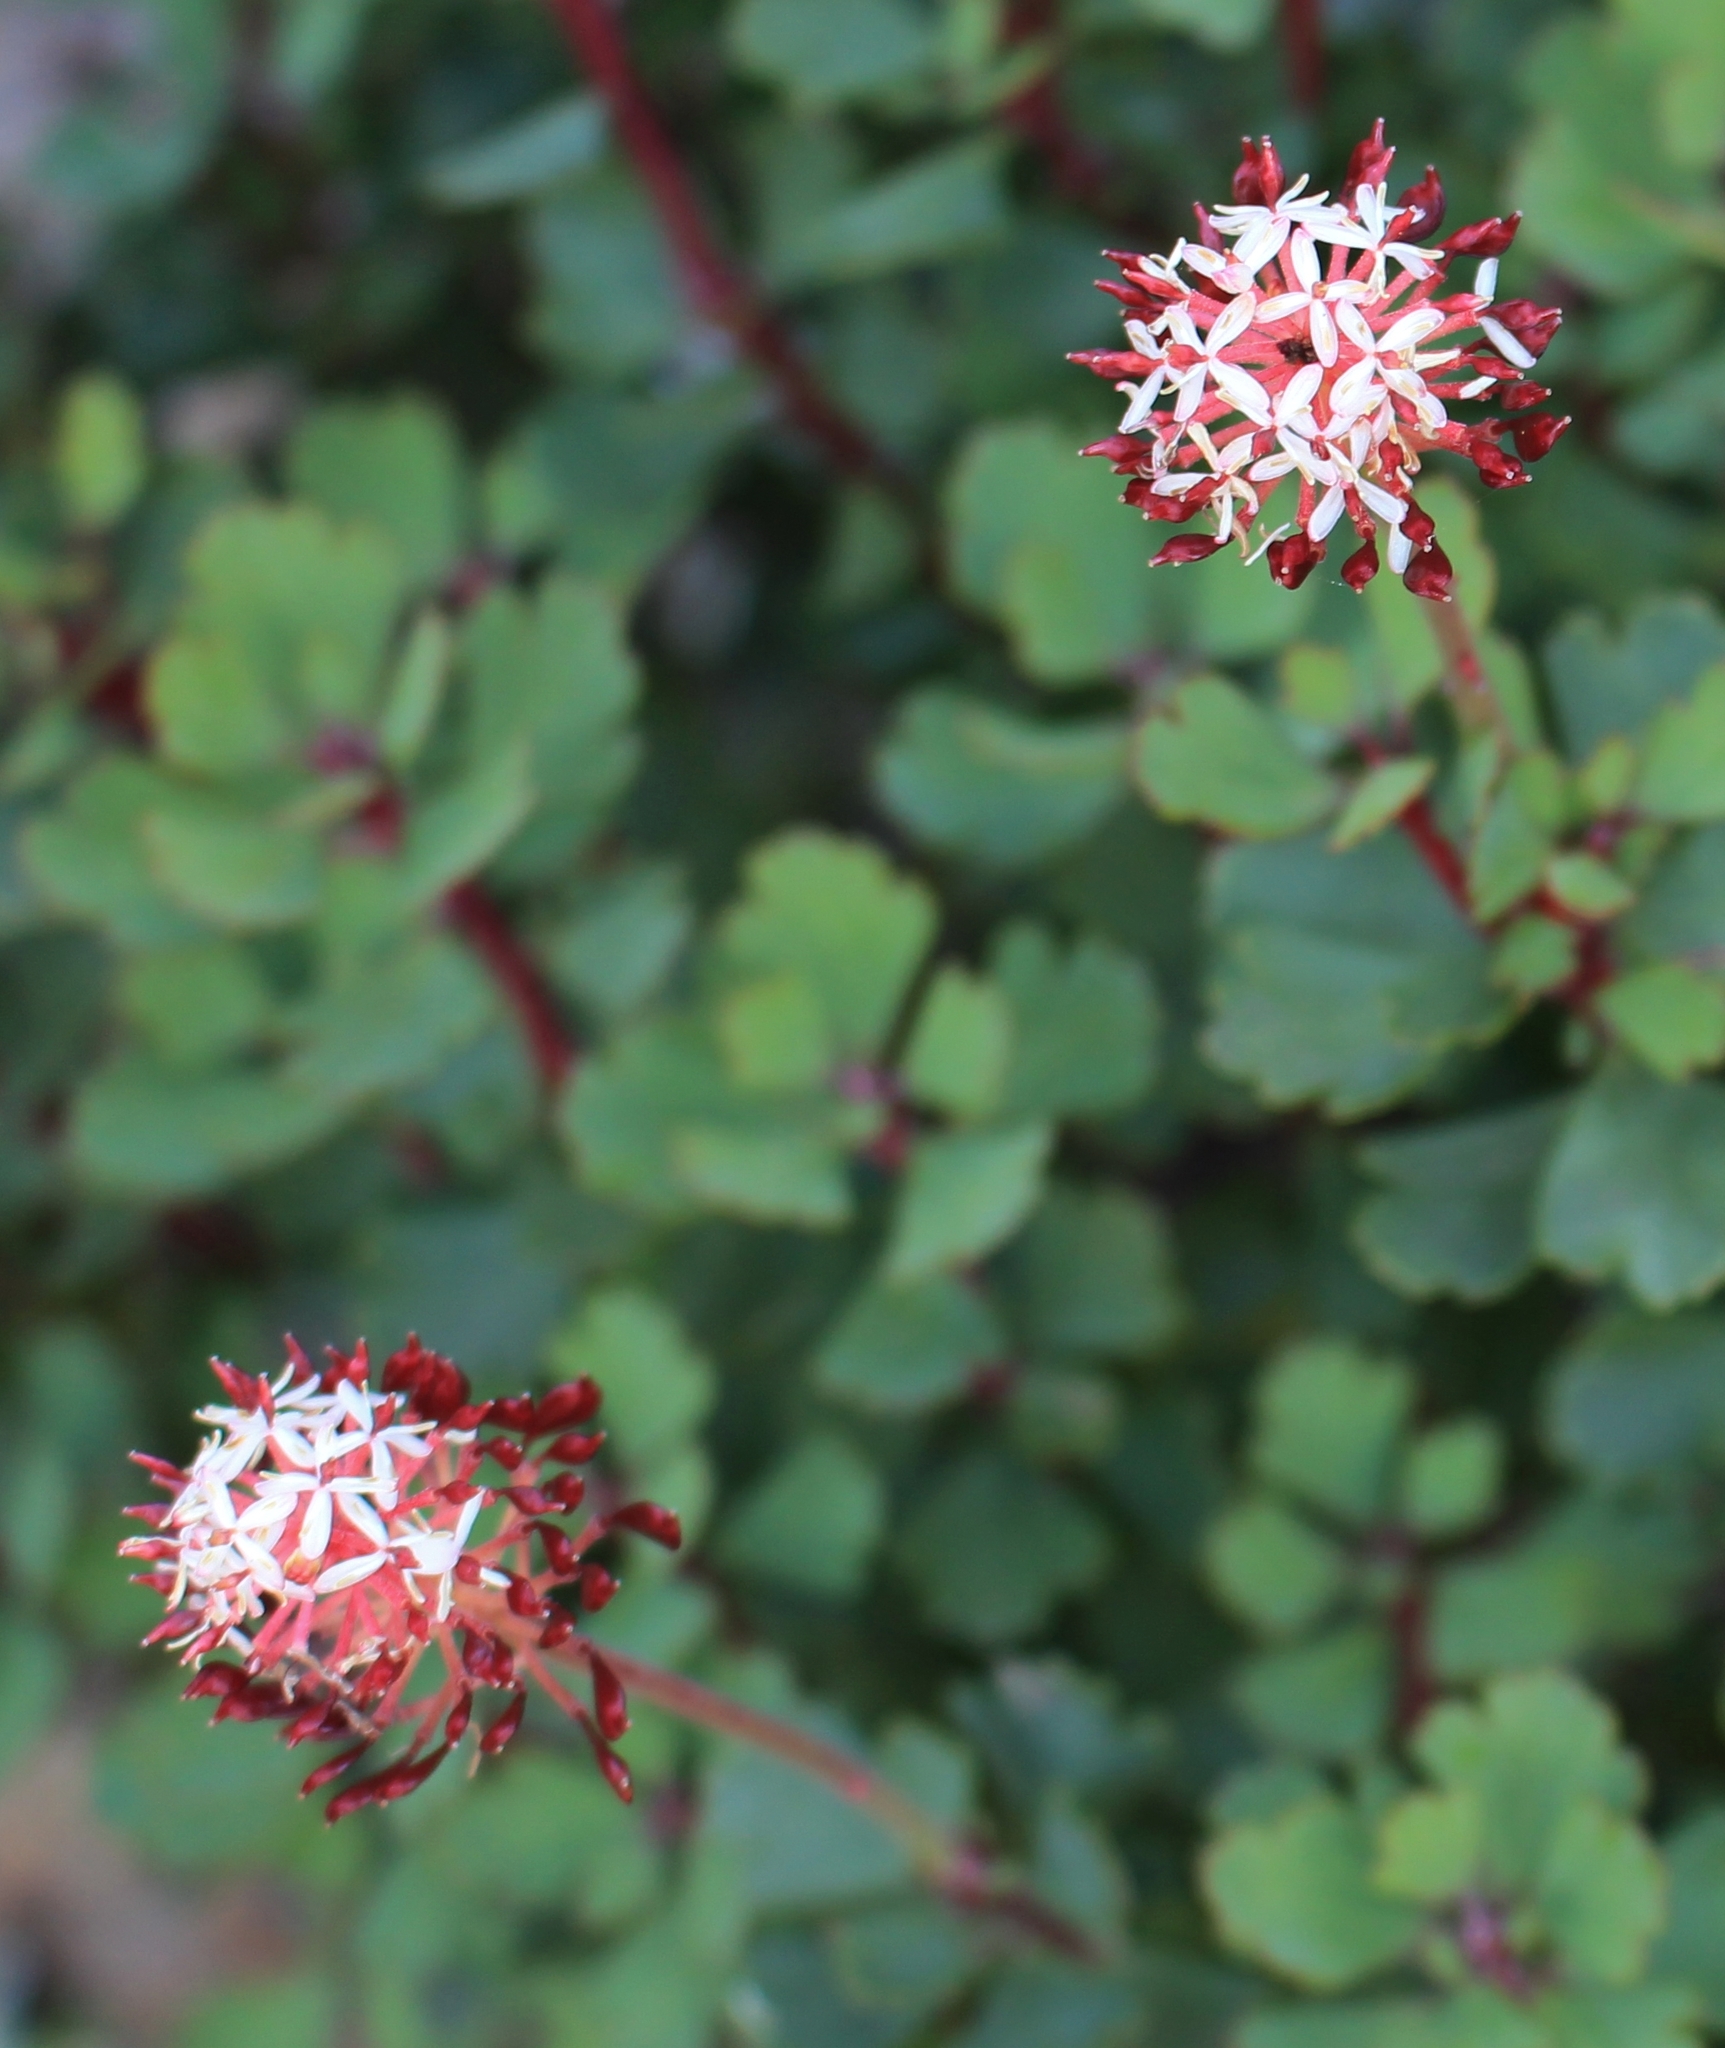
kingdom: Plantae
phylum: Tracheophyta
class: Magnoliopsida
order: Proteales
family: Proteaceae
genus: Bellendena
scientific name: Bellendena montana
